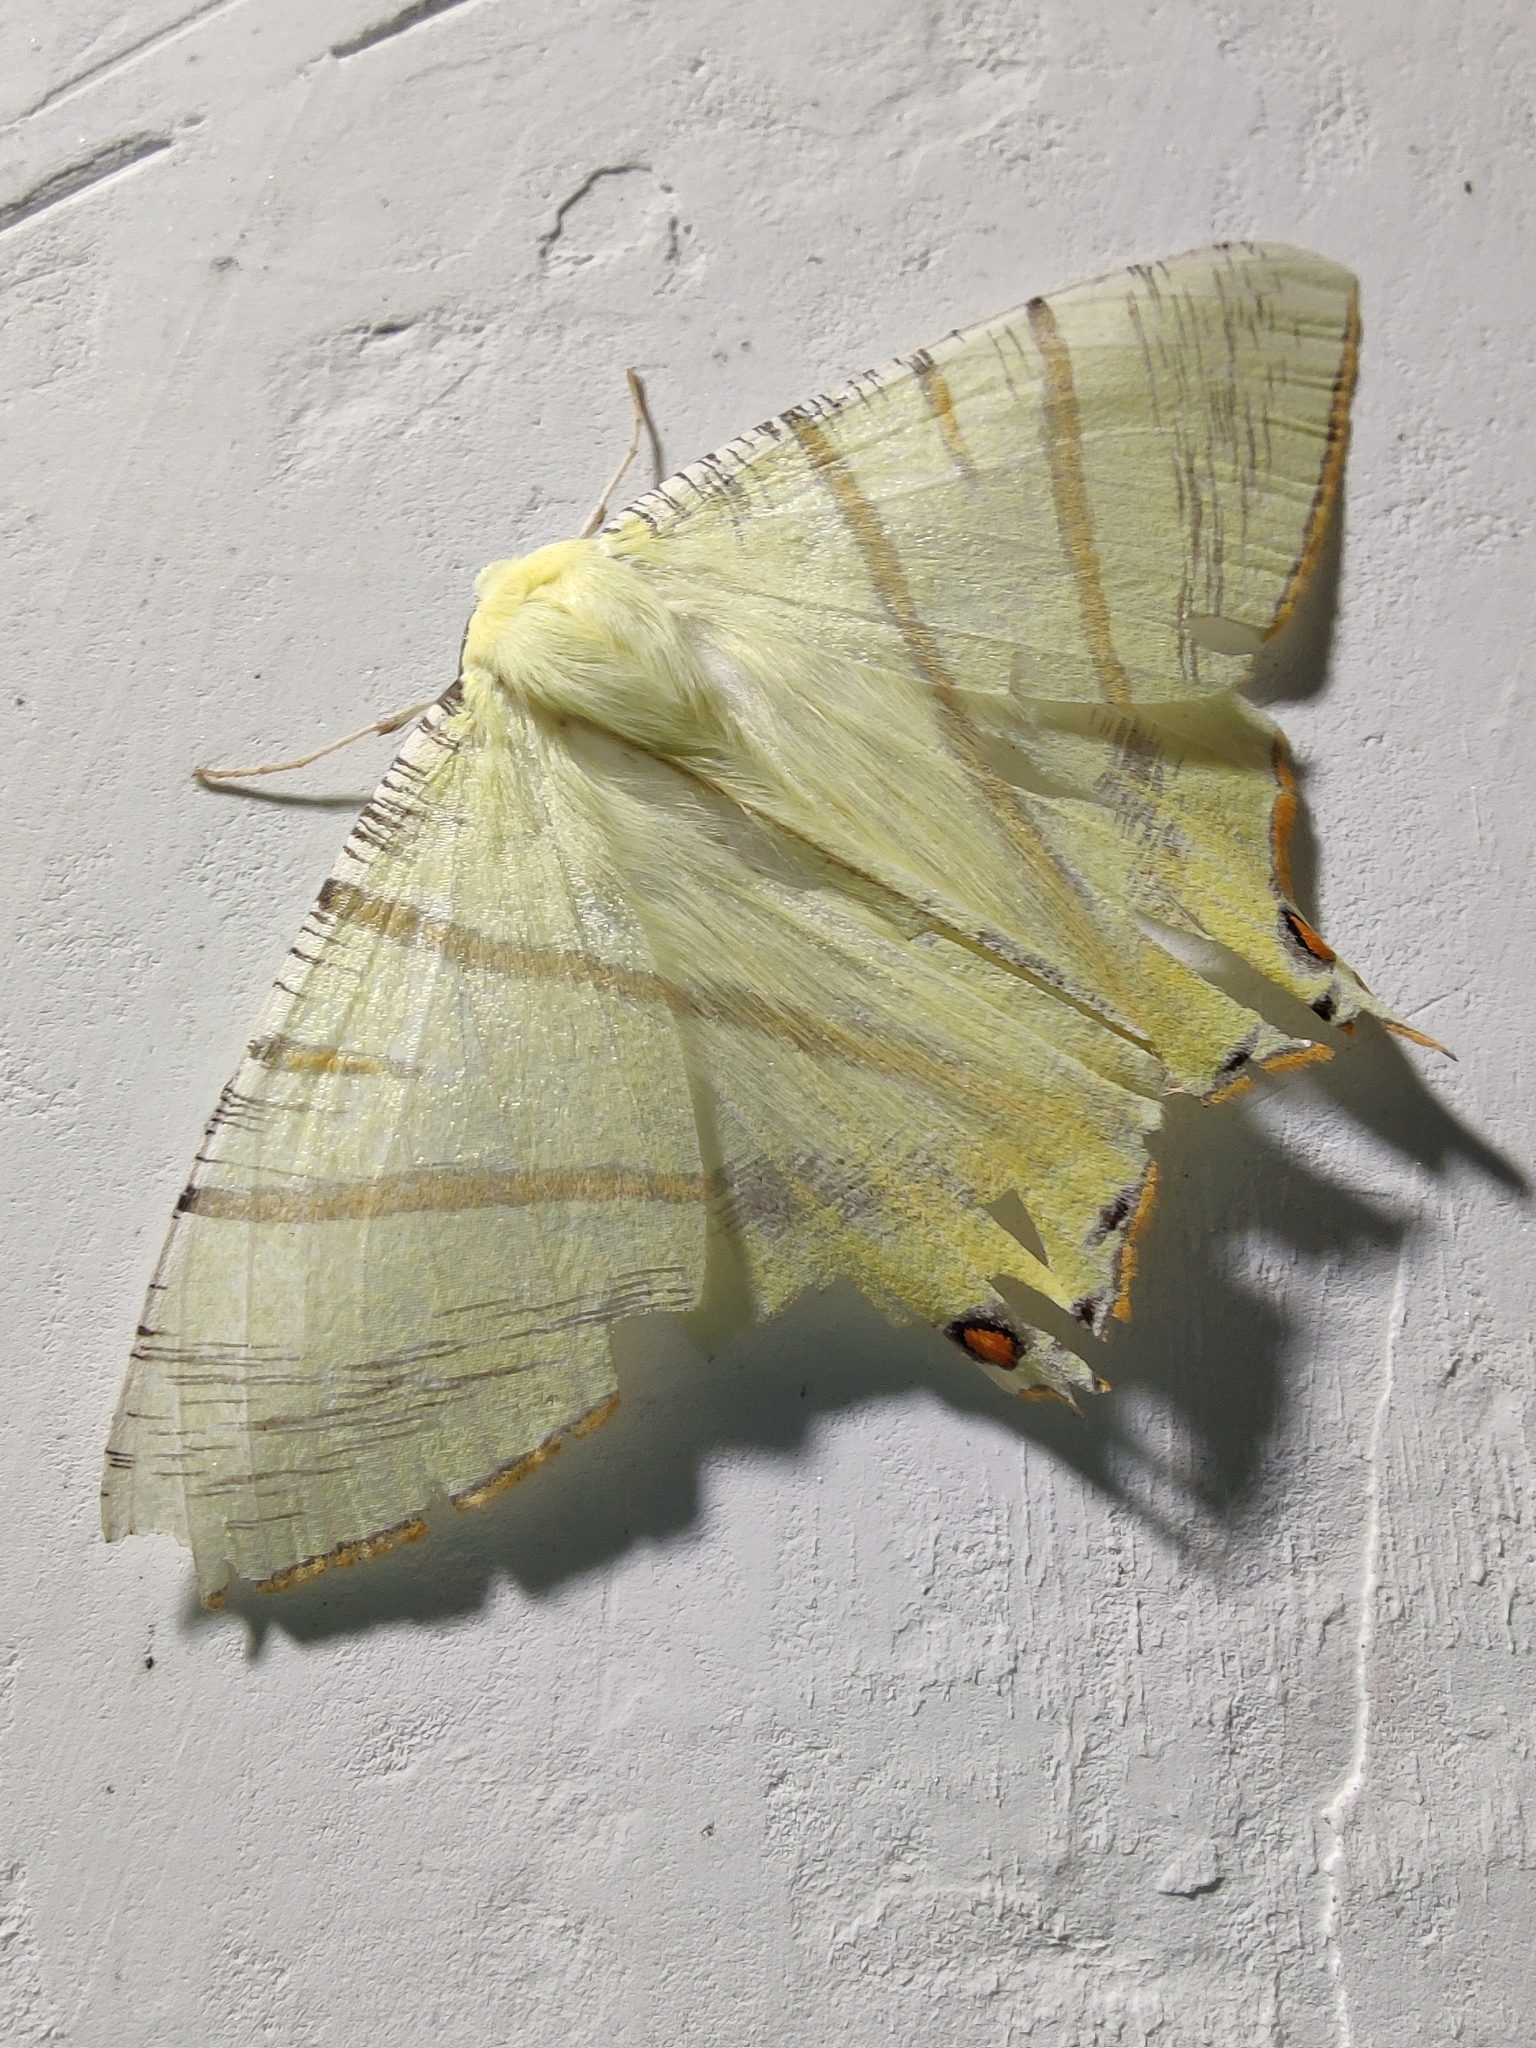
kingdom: Animalia
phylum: Arthropoda
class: Insecta
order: Lepidoptera
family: Geometridae
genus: Ourapteryx
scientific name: Ourapteryx primularis
